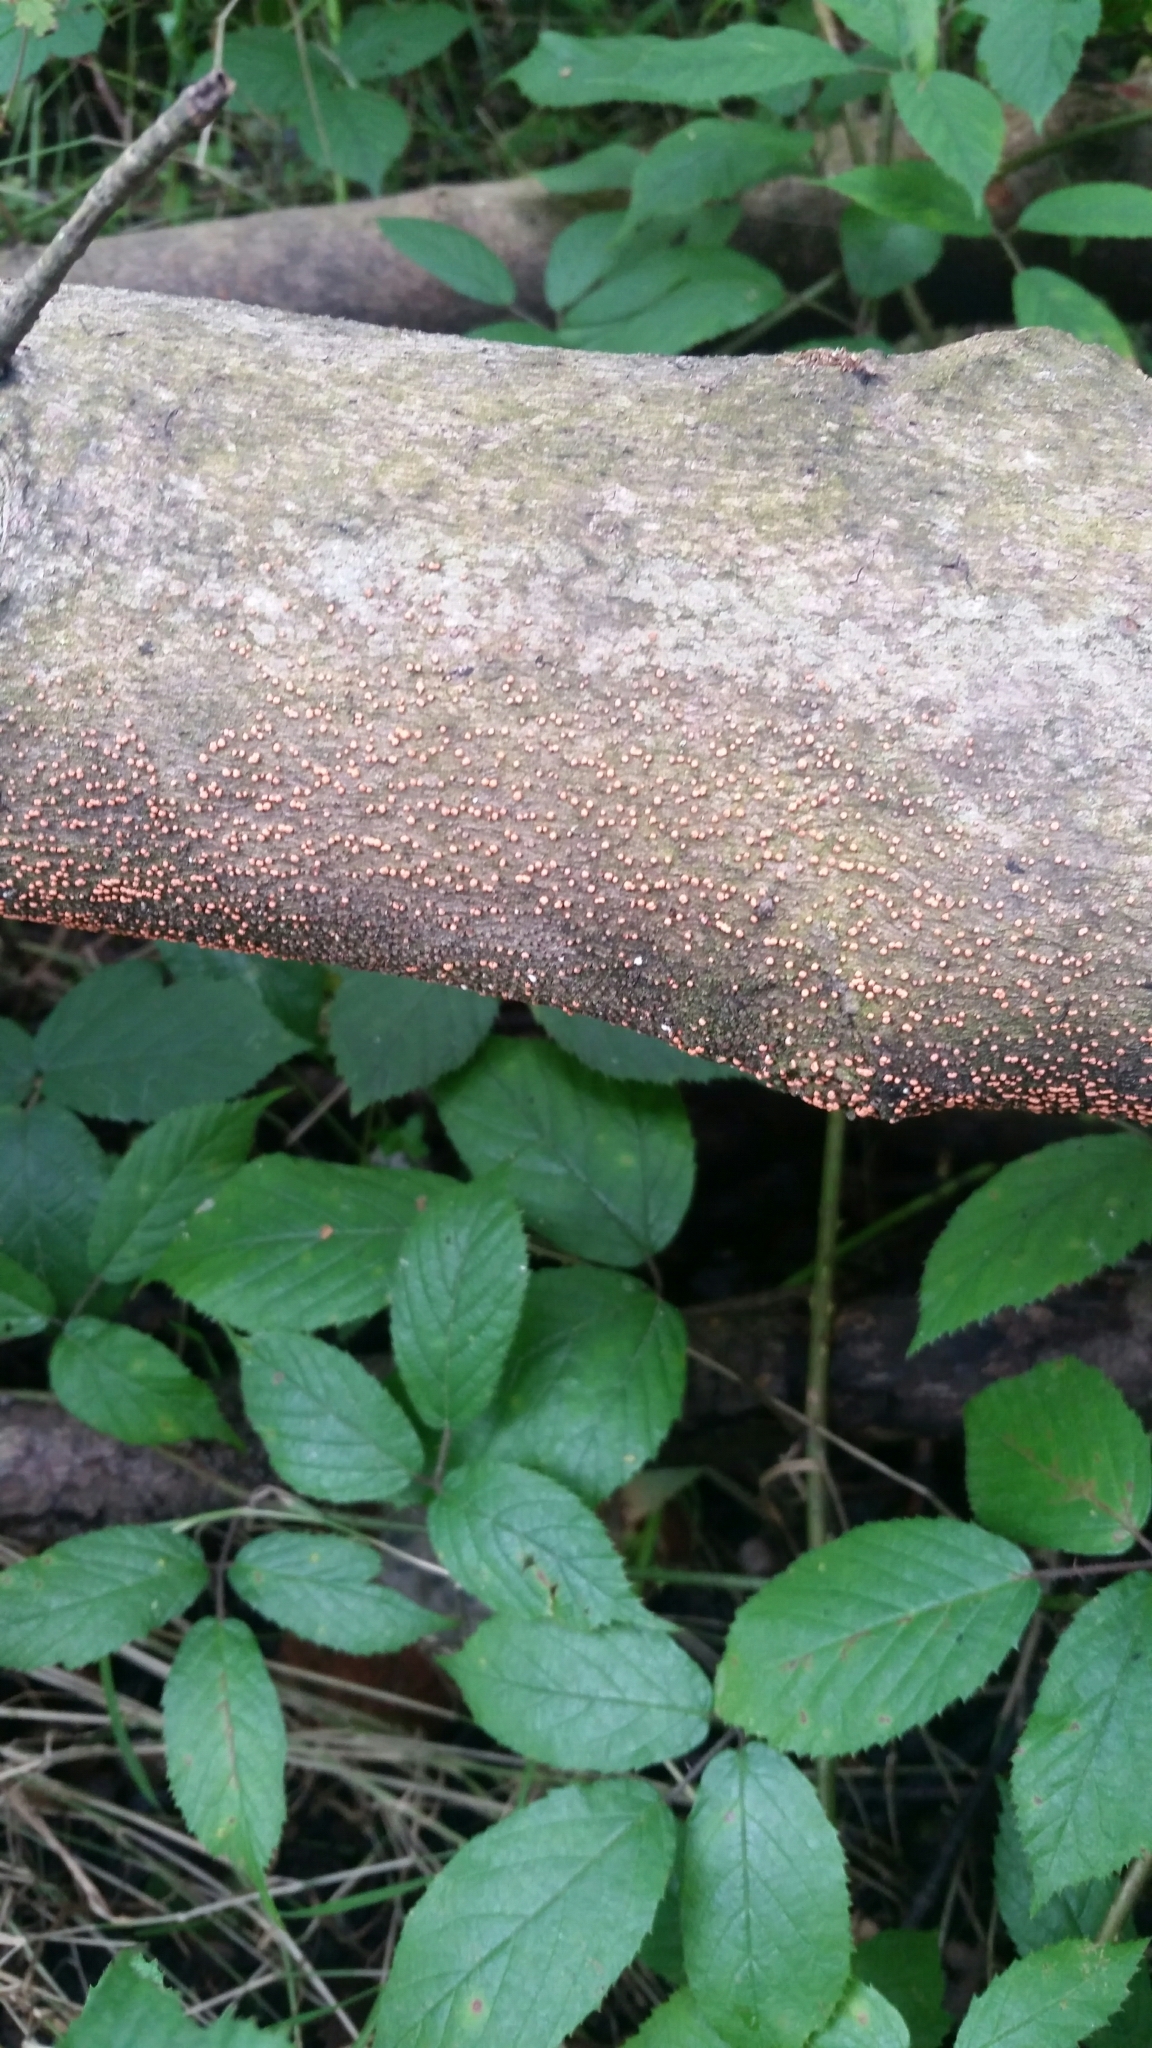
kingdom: Fungi
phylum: Ascomycota
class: Sordariomycetes
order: Hypocreales
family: Nectriaceae
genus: Nectria
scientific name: Nectria cinnabarina
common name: Coral spot
